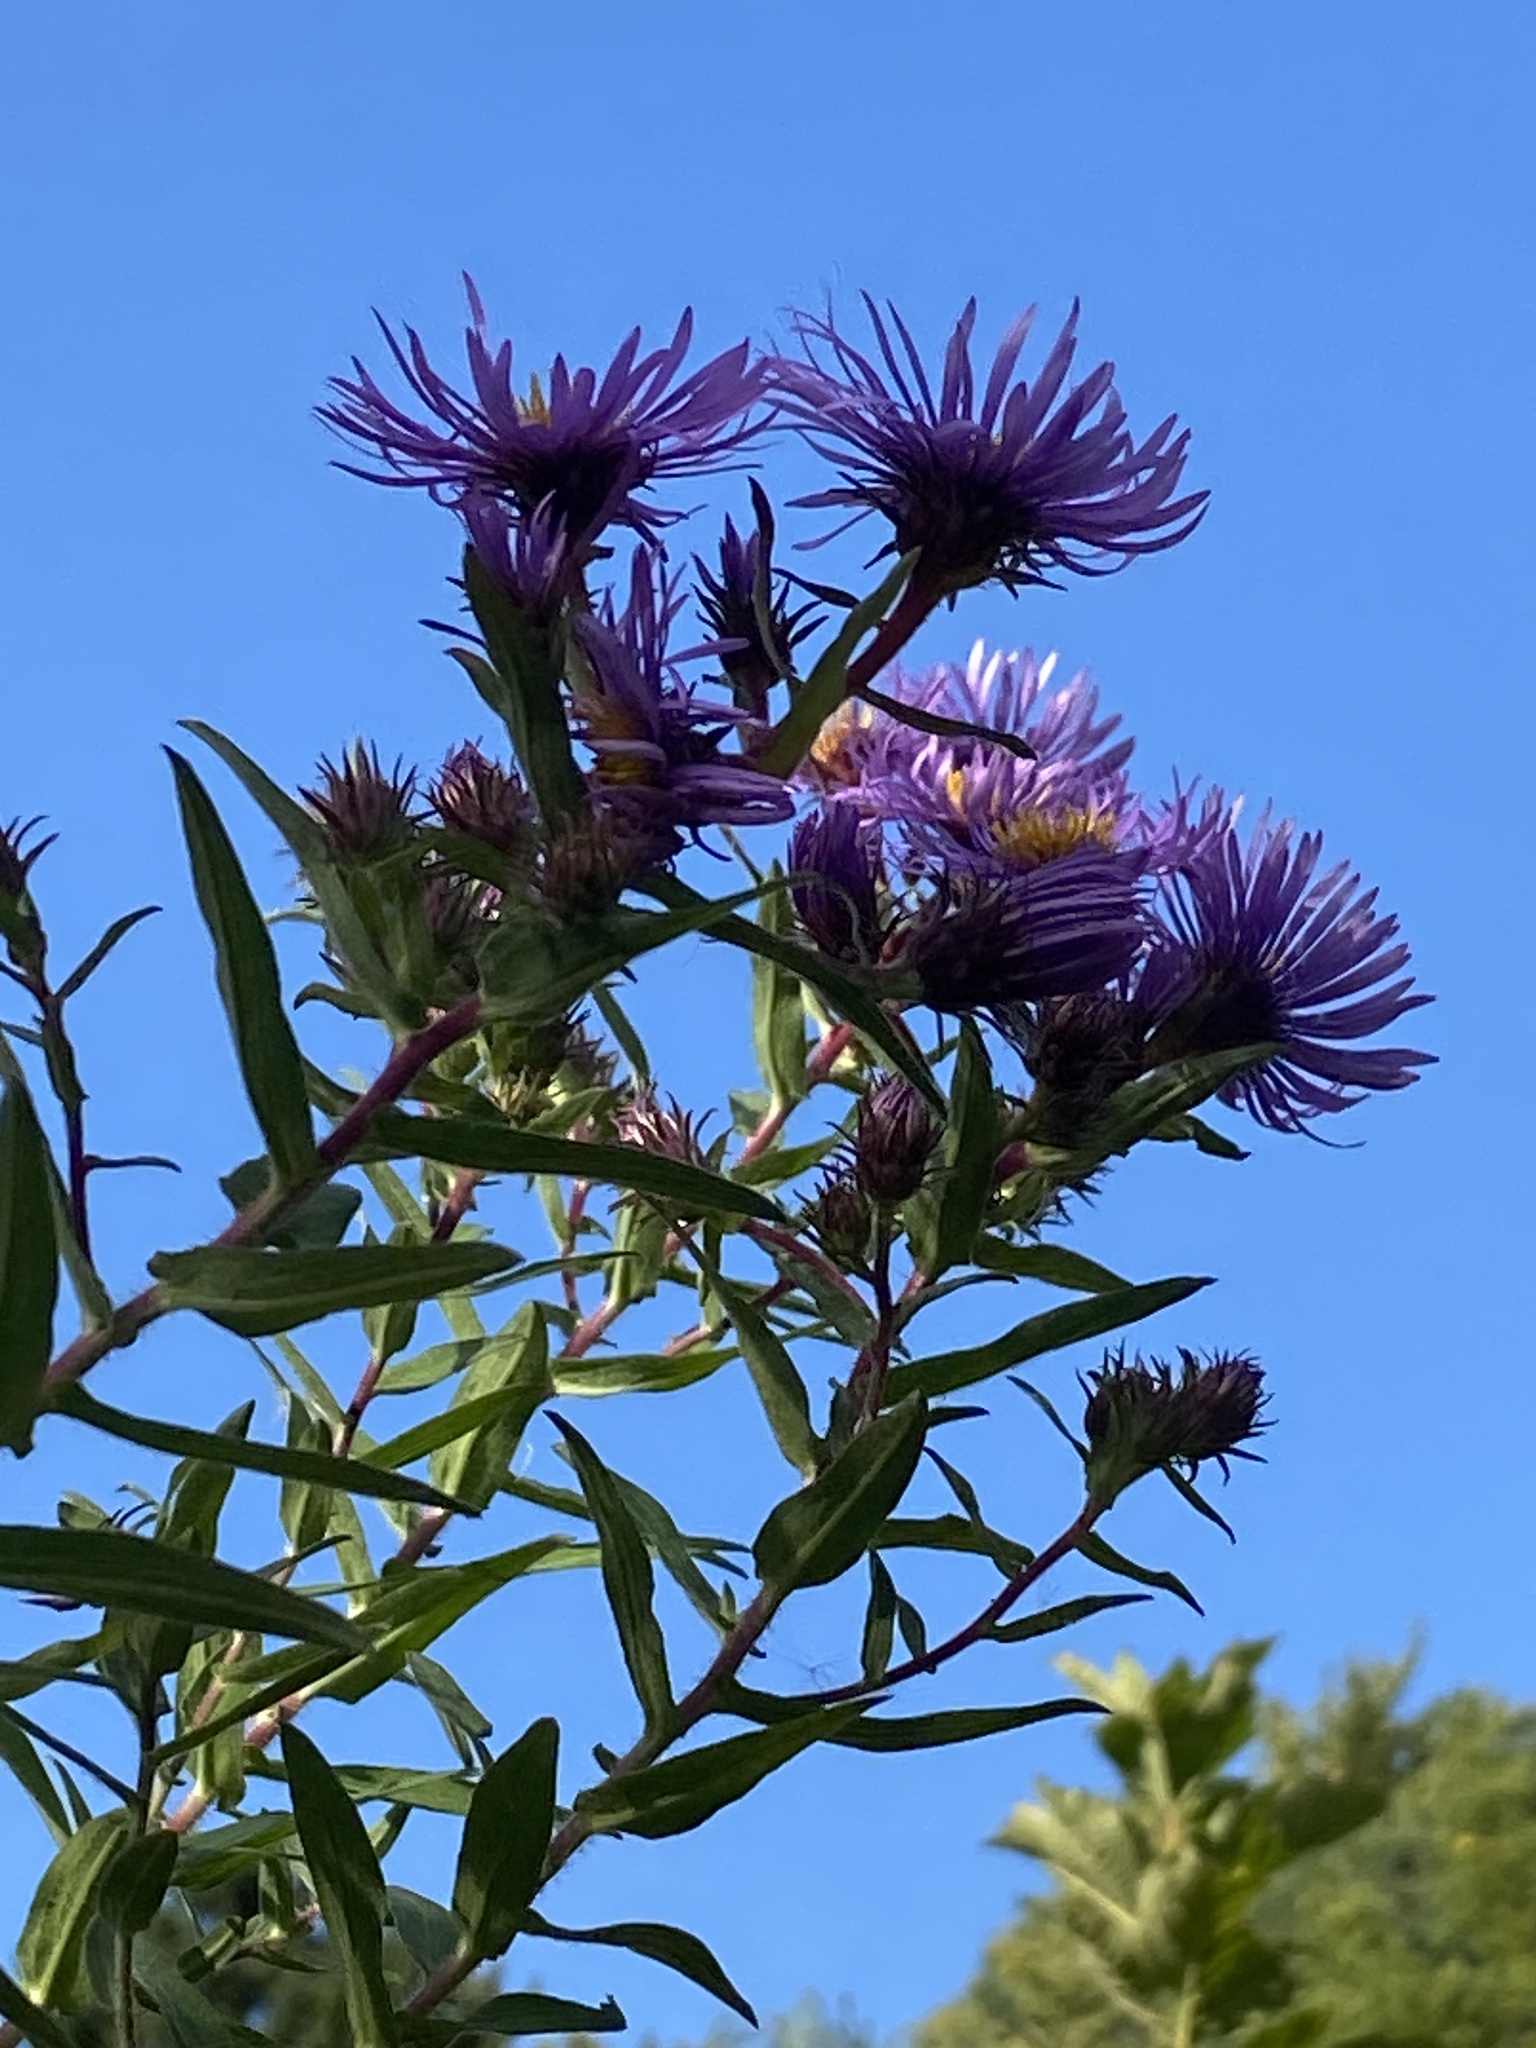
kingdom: Plantae
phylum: Tracheophyta
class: Magnoliopsida
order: Asterales
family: Asteraceae
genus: Symphyotrichum
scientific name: Symphyotrichum novae-angliae
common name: Michaelmas daisy
